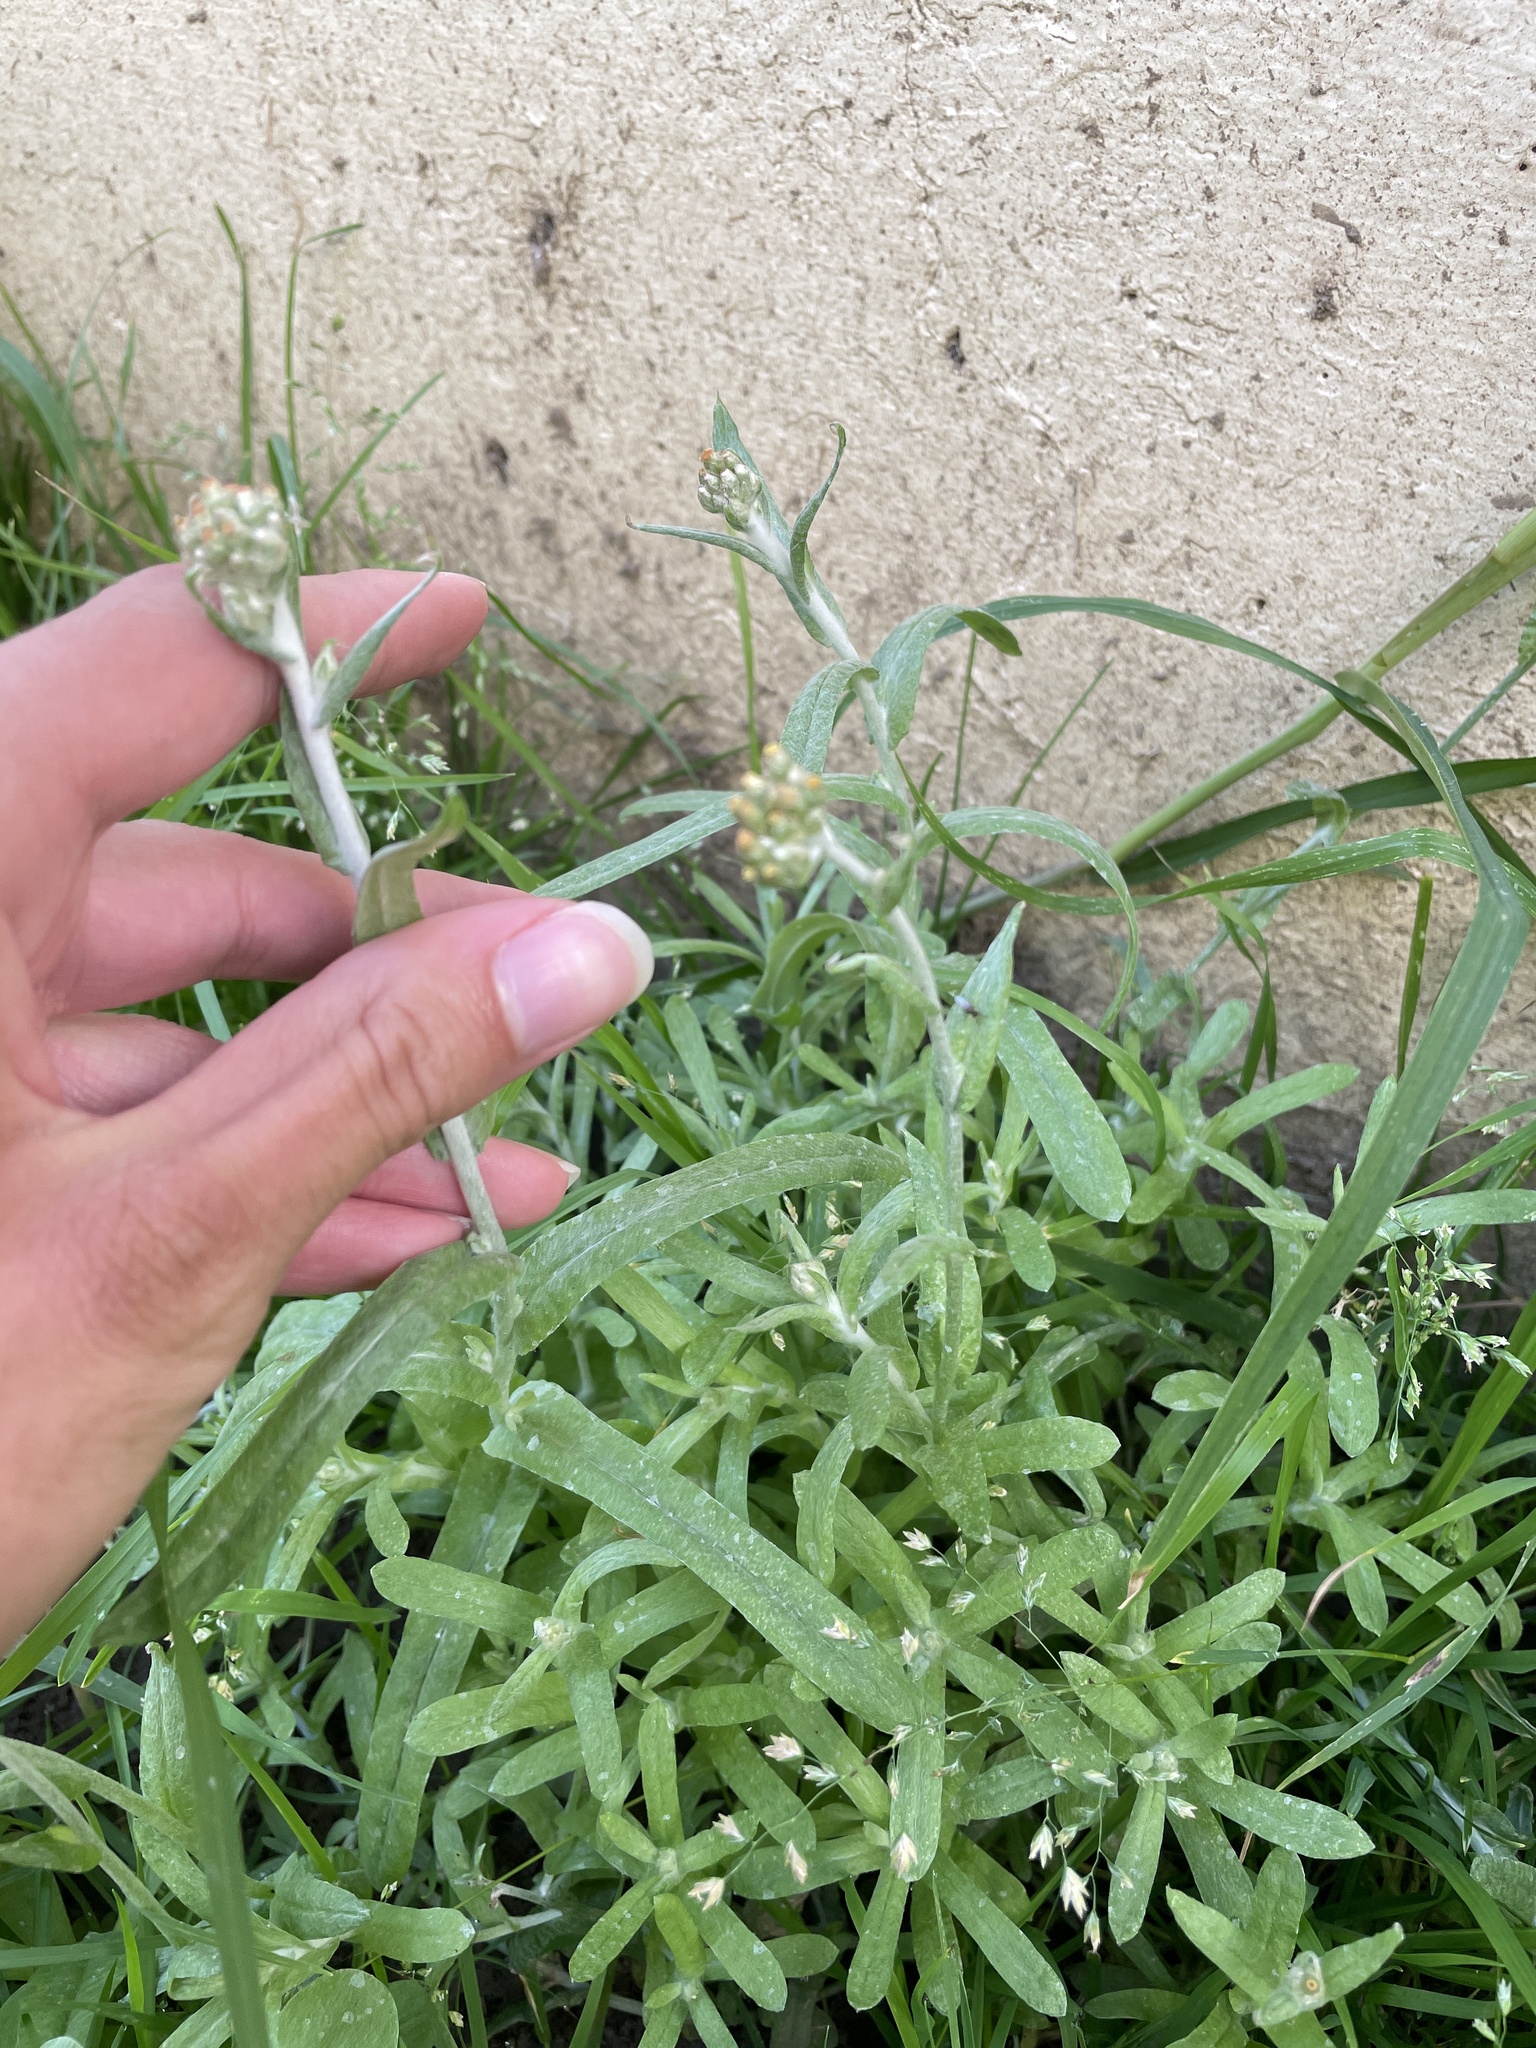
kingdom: Plantae
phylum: Tracheophyta
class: Magnoliopsida
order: Asterales
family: Asteraceae
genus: Helichrysum
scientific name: Helichrysum luteoalbum
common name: Daisy
